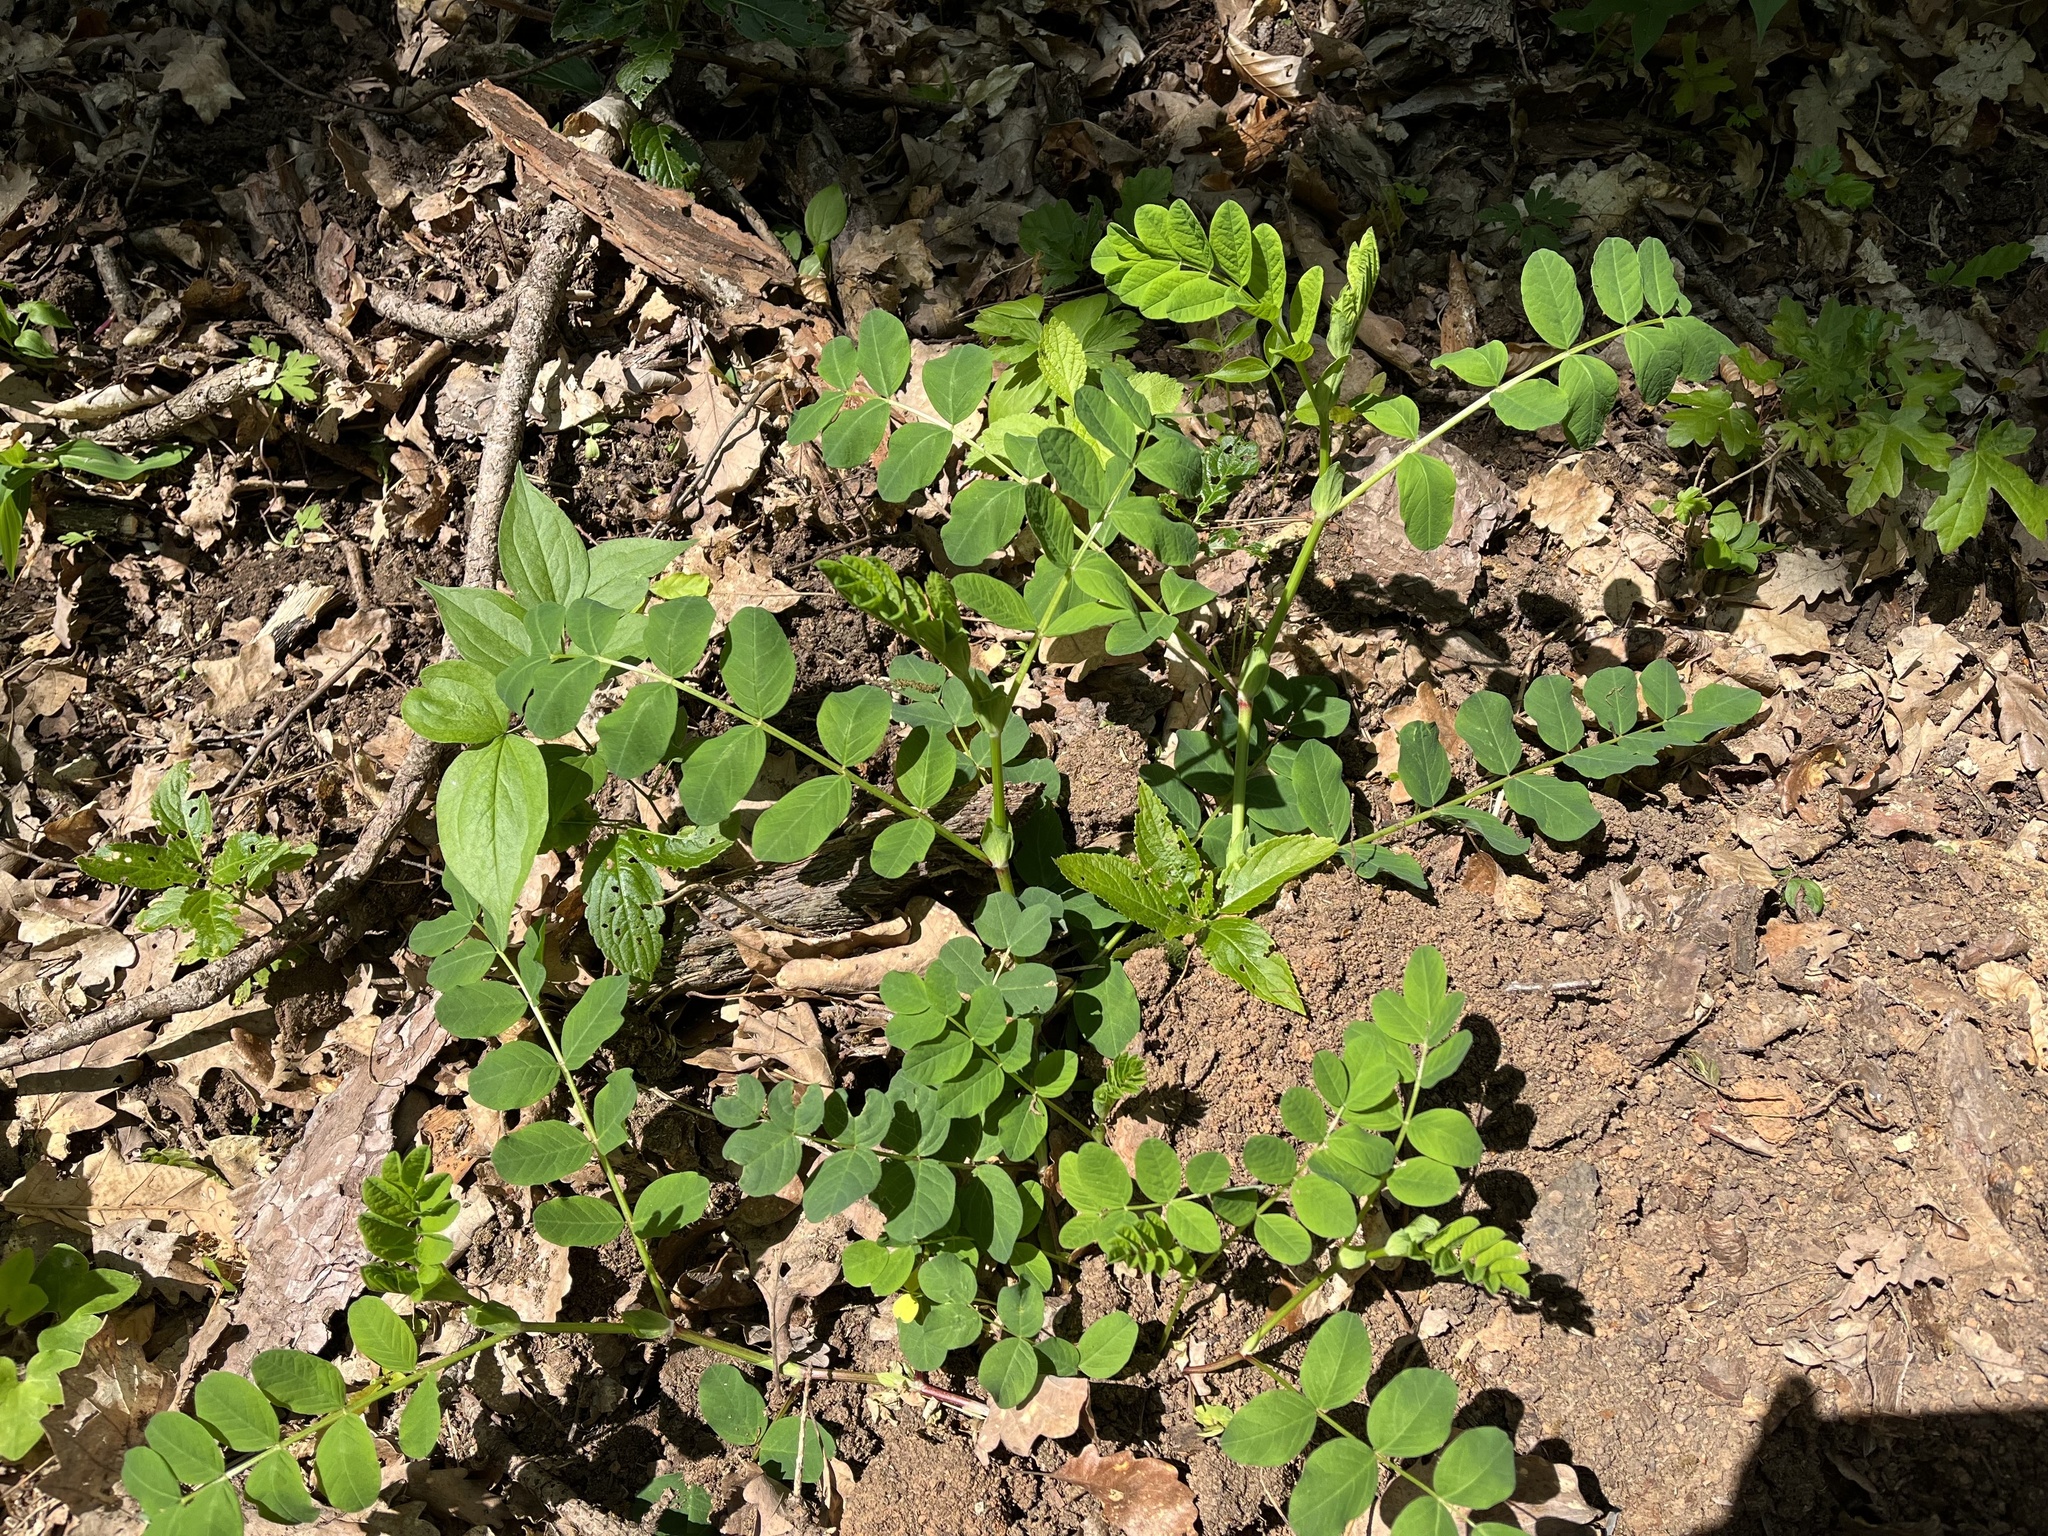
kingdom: Plantae
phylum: Tracheophyta
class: Magnoliopsida
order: Fabales
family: Fabaceae
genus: Astragalus
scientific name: Astragalus glycyphyllos
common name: Wild liquorice
